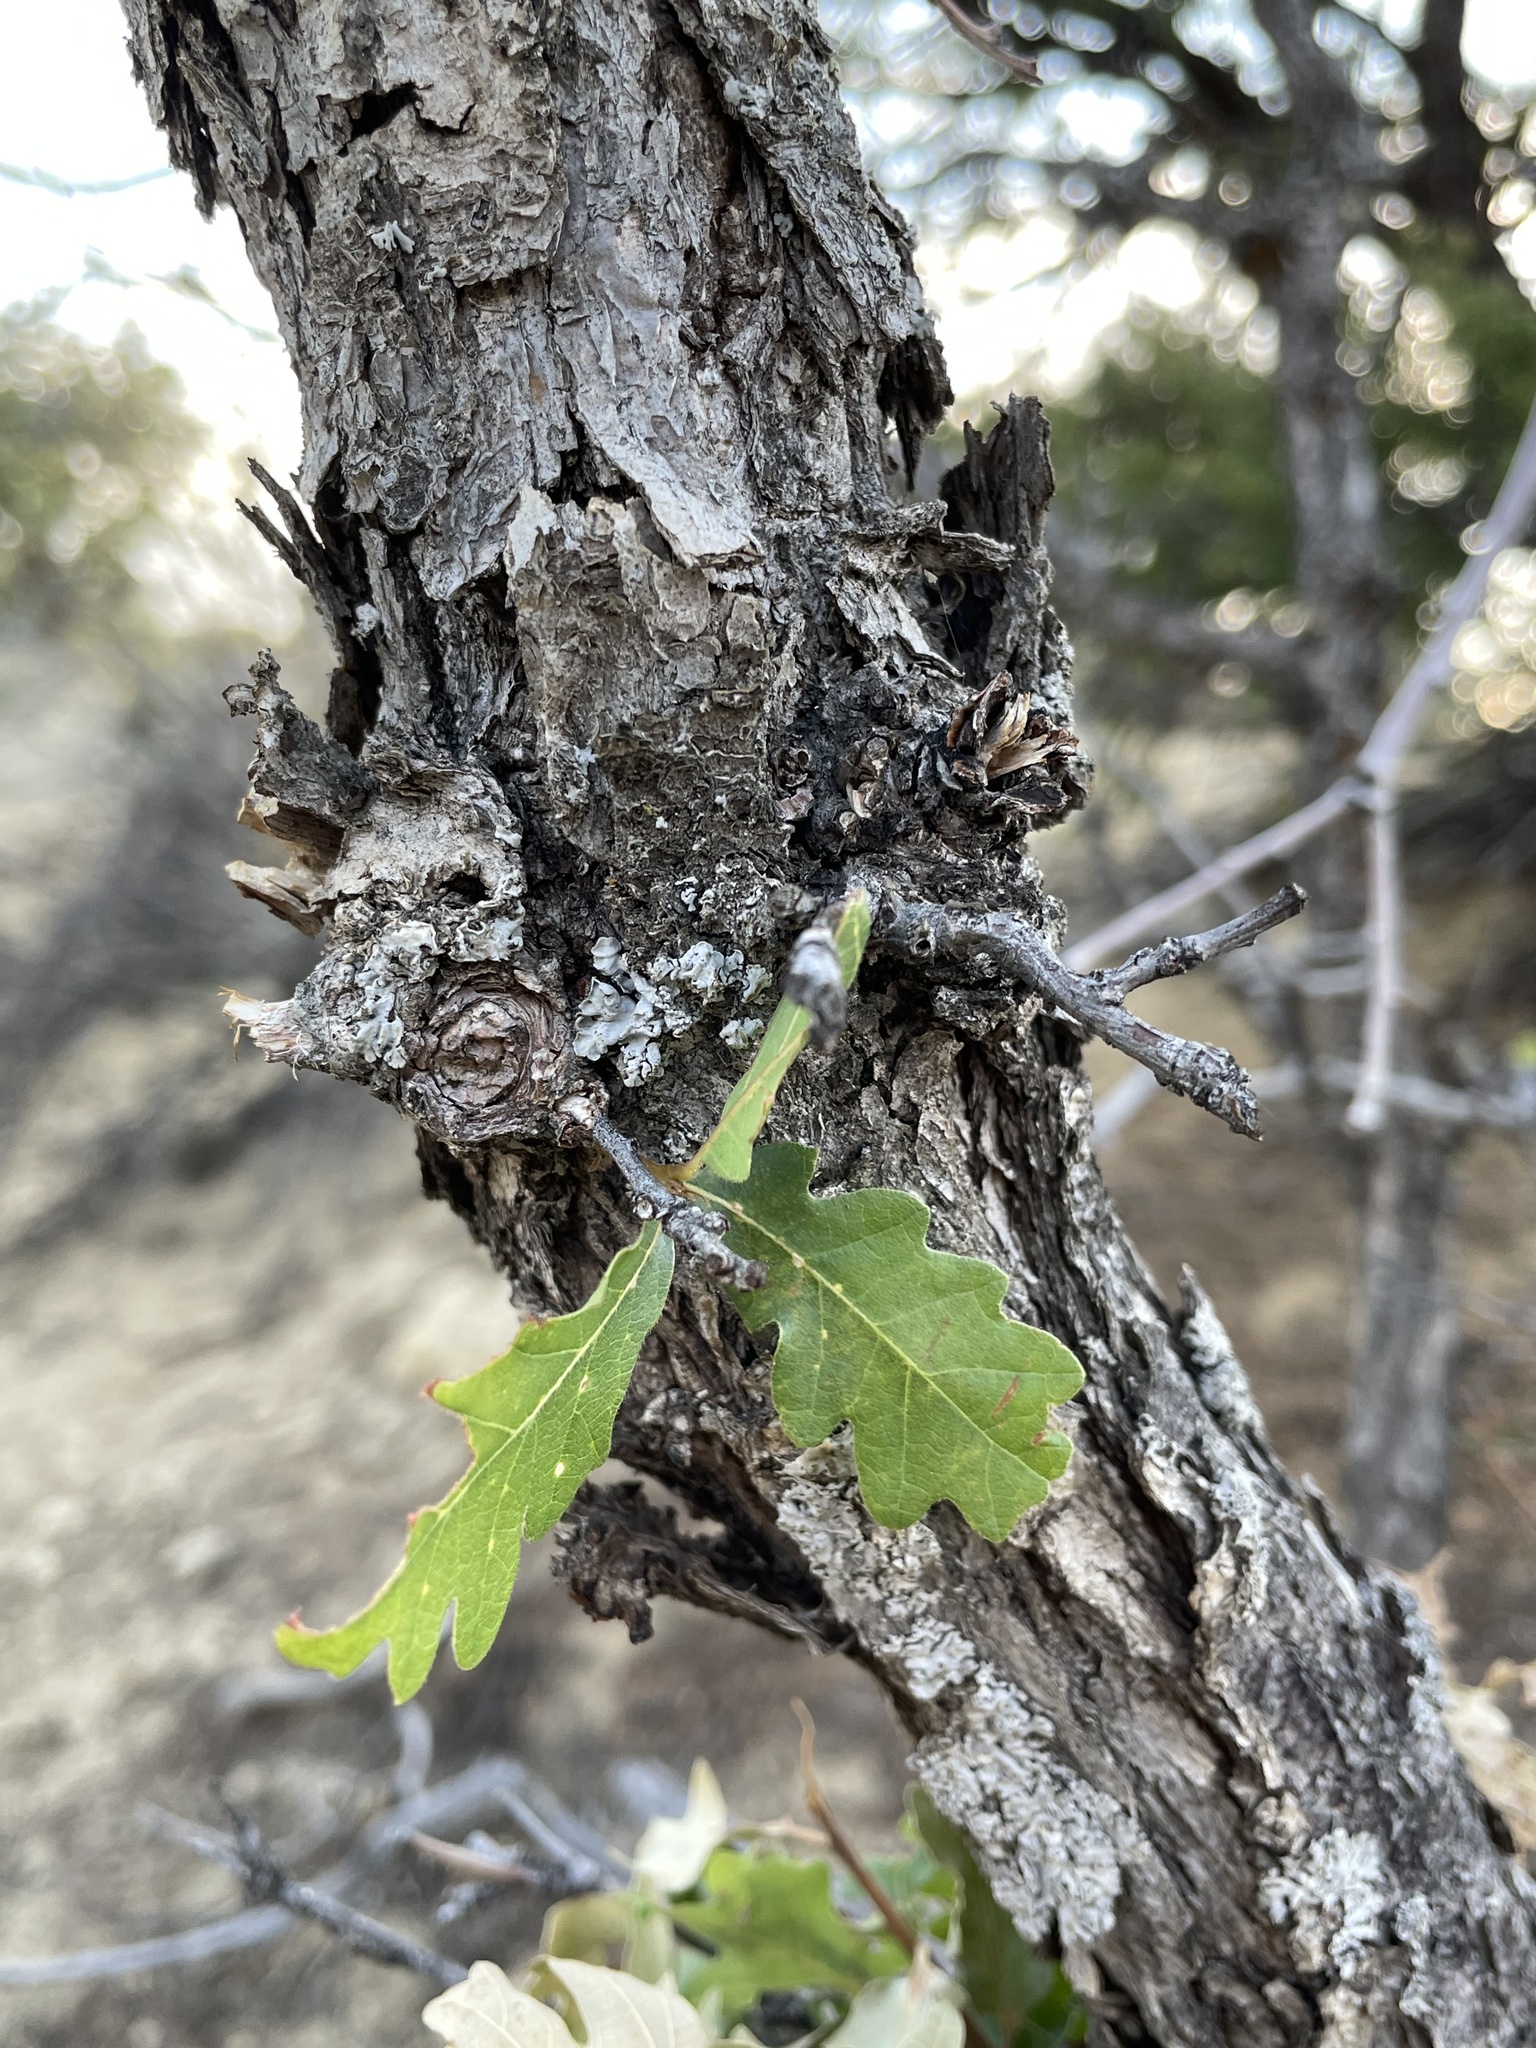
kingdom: Plantae
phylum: Tracheophyta
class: Magnoliopsida
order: Fagales
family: Fagaceae
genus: Quercus
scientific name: Quercus gambelii
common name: Gambel oak
